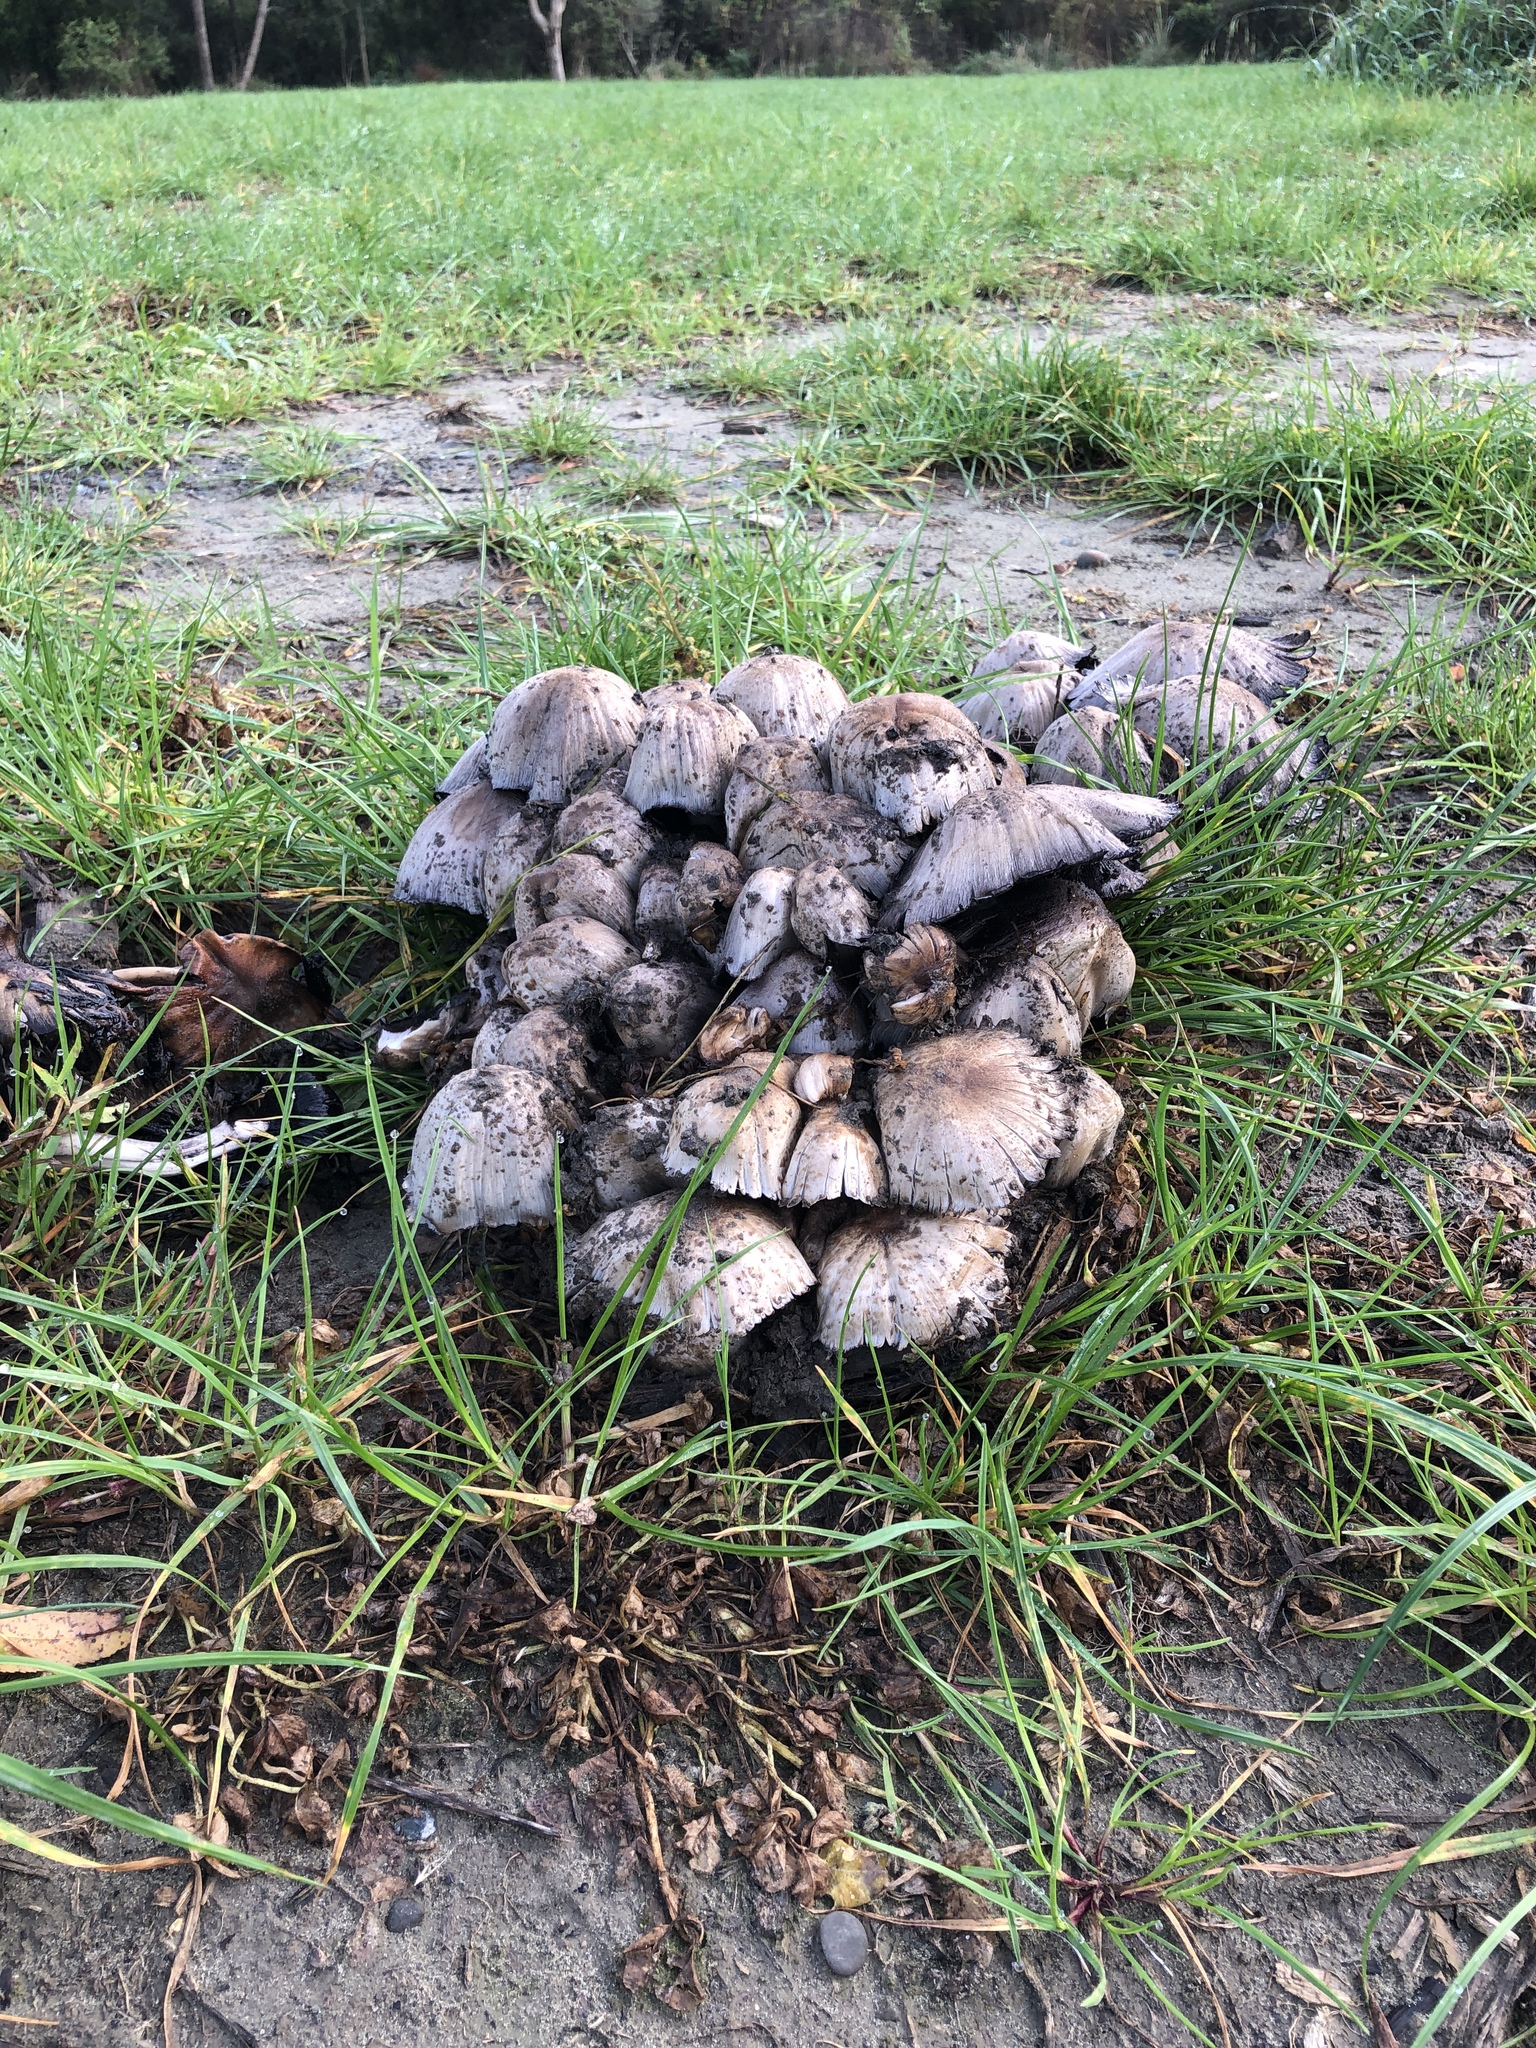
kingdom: Fungi
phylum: Basidiomycota
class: Agaricomycetes
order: Agaricales
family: Psathyrellaceae
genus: Coprinopsis
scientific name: Coprinopsis atramentaria
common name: Common ink-cap
